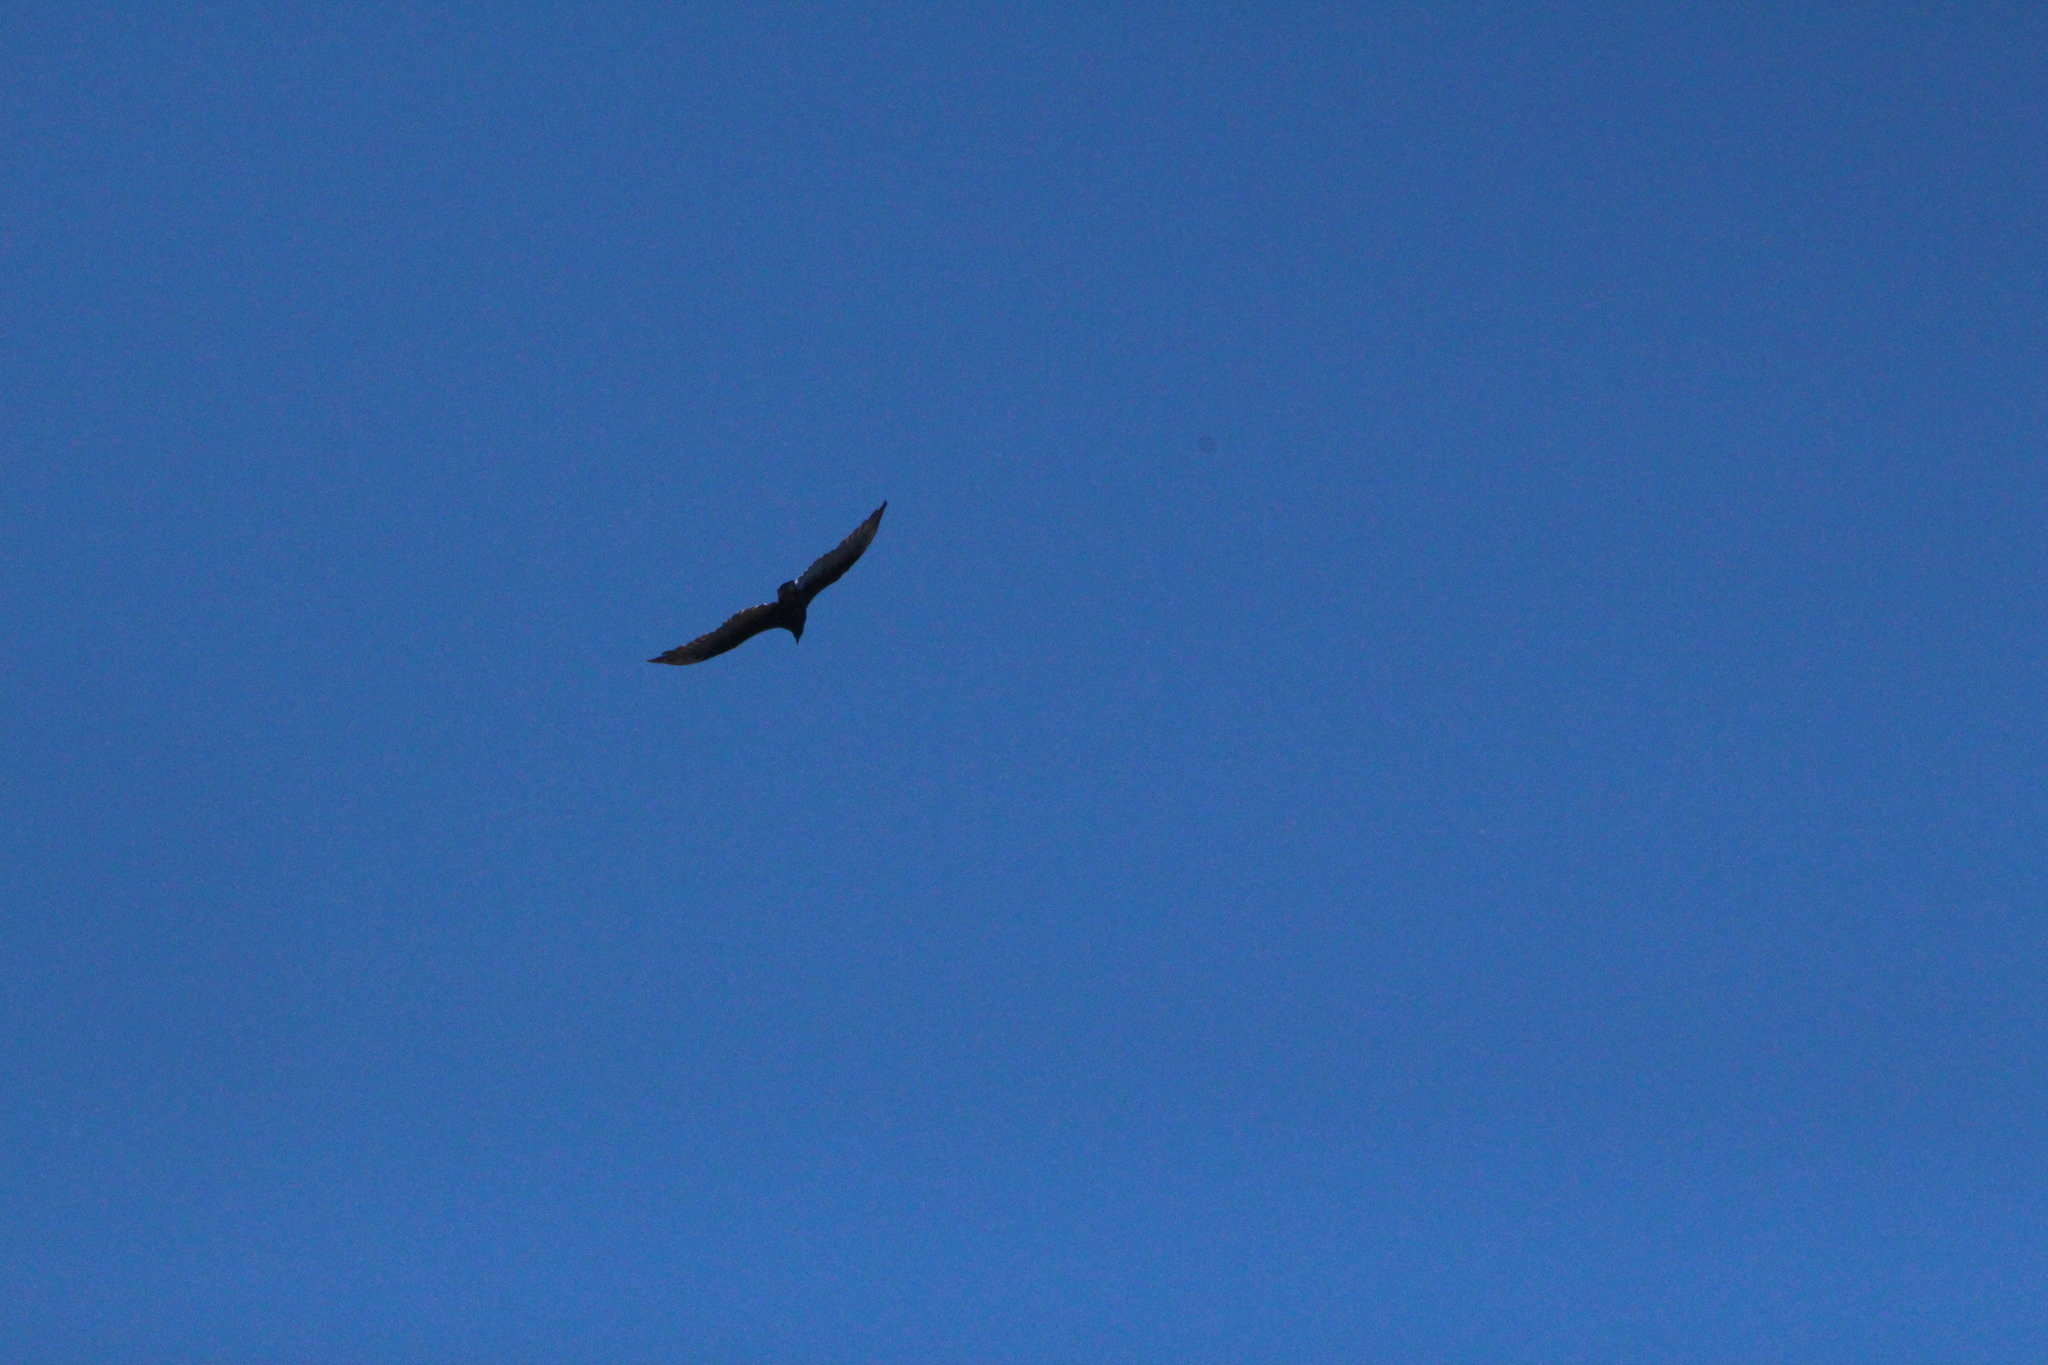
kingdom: Animalia
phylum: Chordata
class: Aves
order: Accipitriformes
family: Cathartidae
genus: Cathartes
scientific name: Cathartes aura
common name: Turkey vulture
